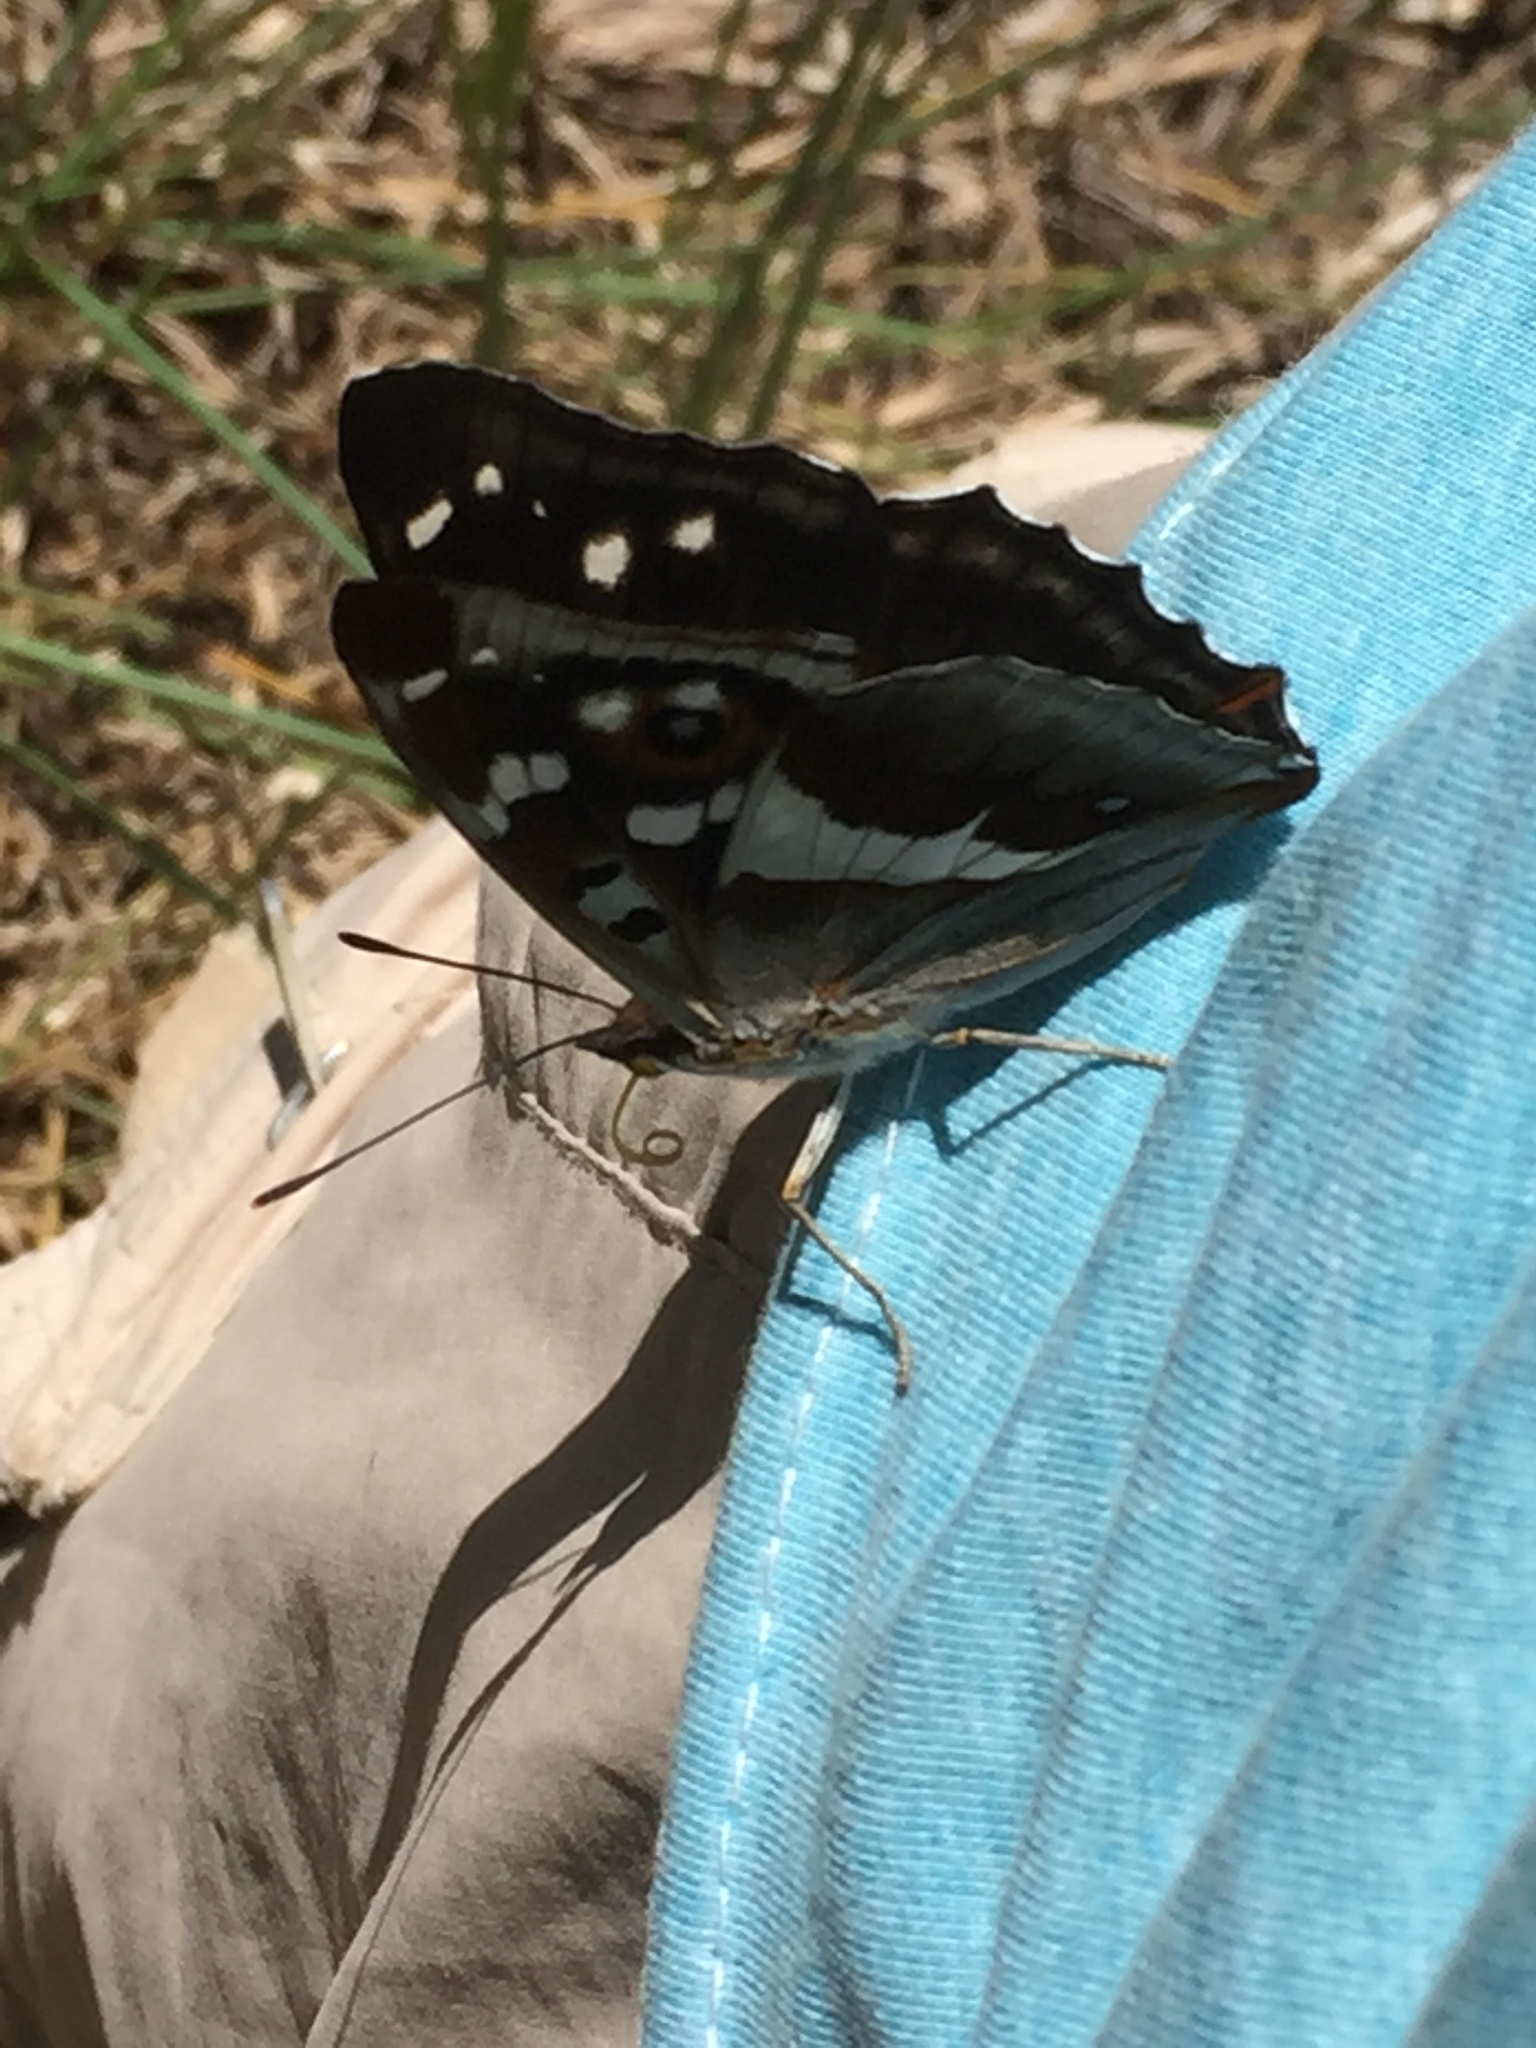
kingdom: Animalia
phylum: Arthropoda
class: Insecta
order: Lepidoptera
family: Nymphalidae
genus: Apatura
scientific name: Apatura iris
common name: Purple emperor
